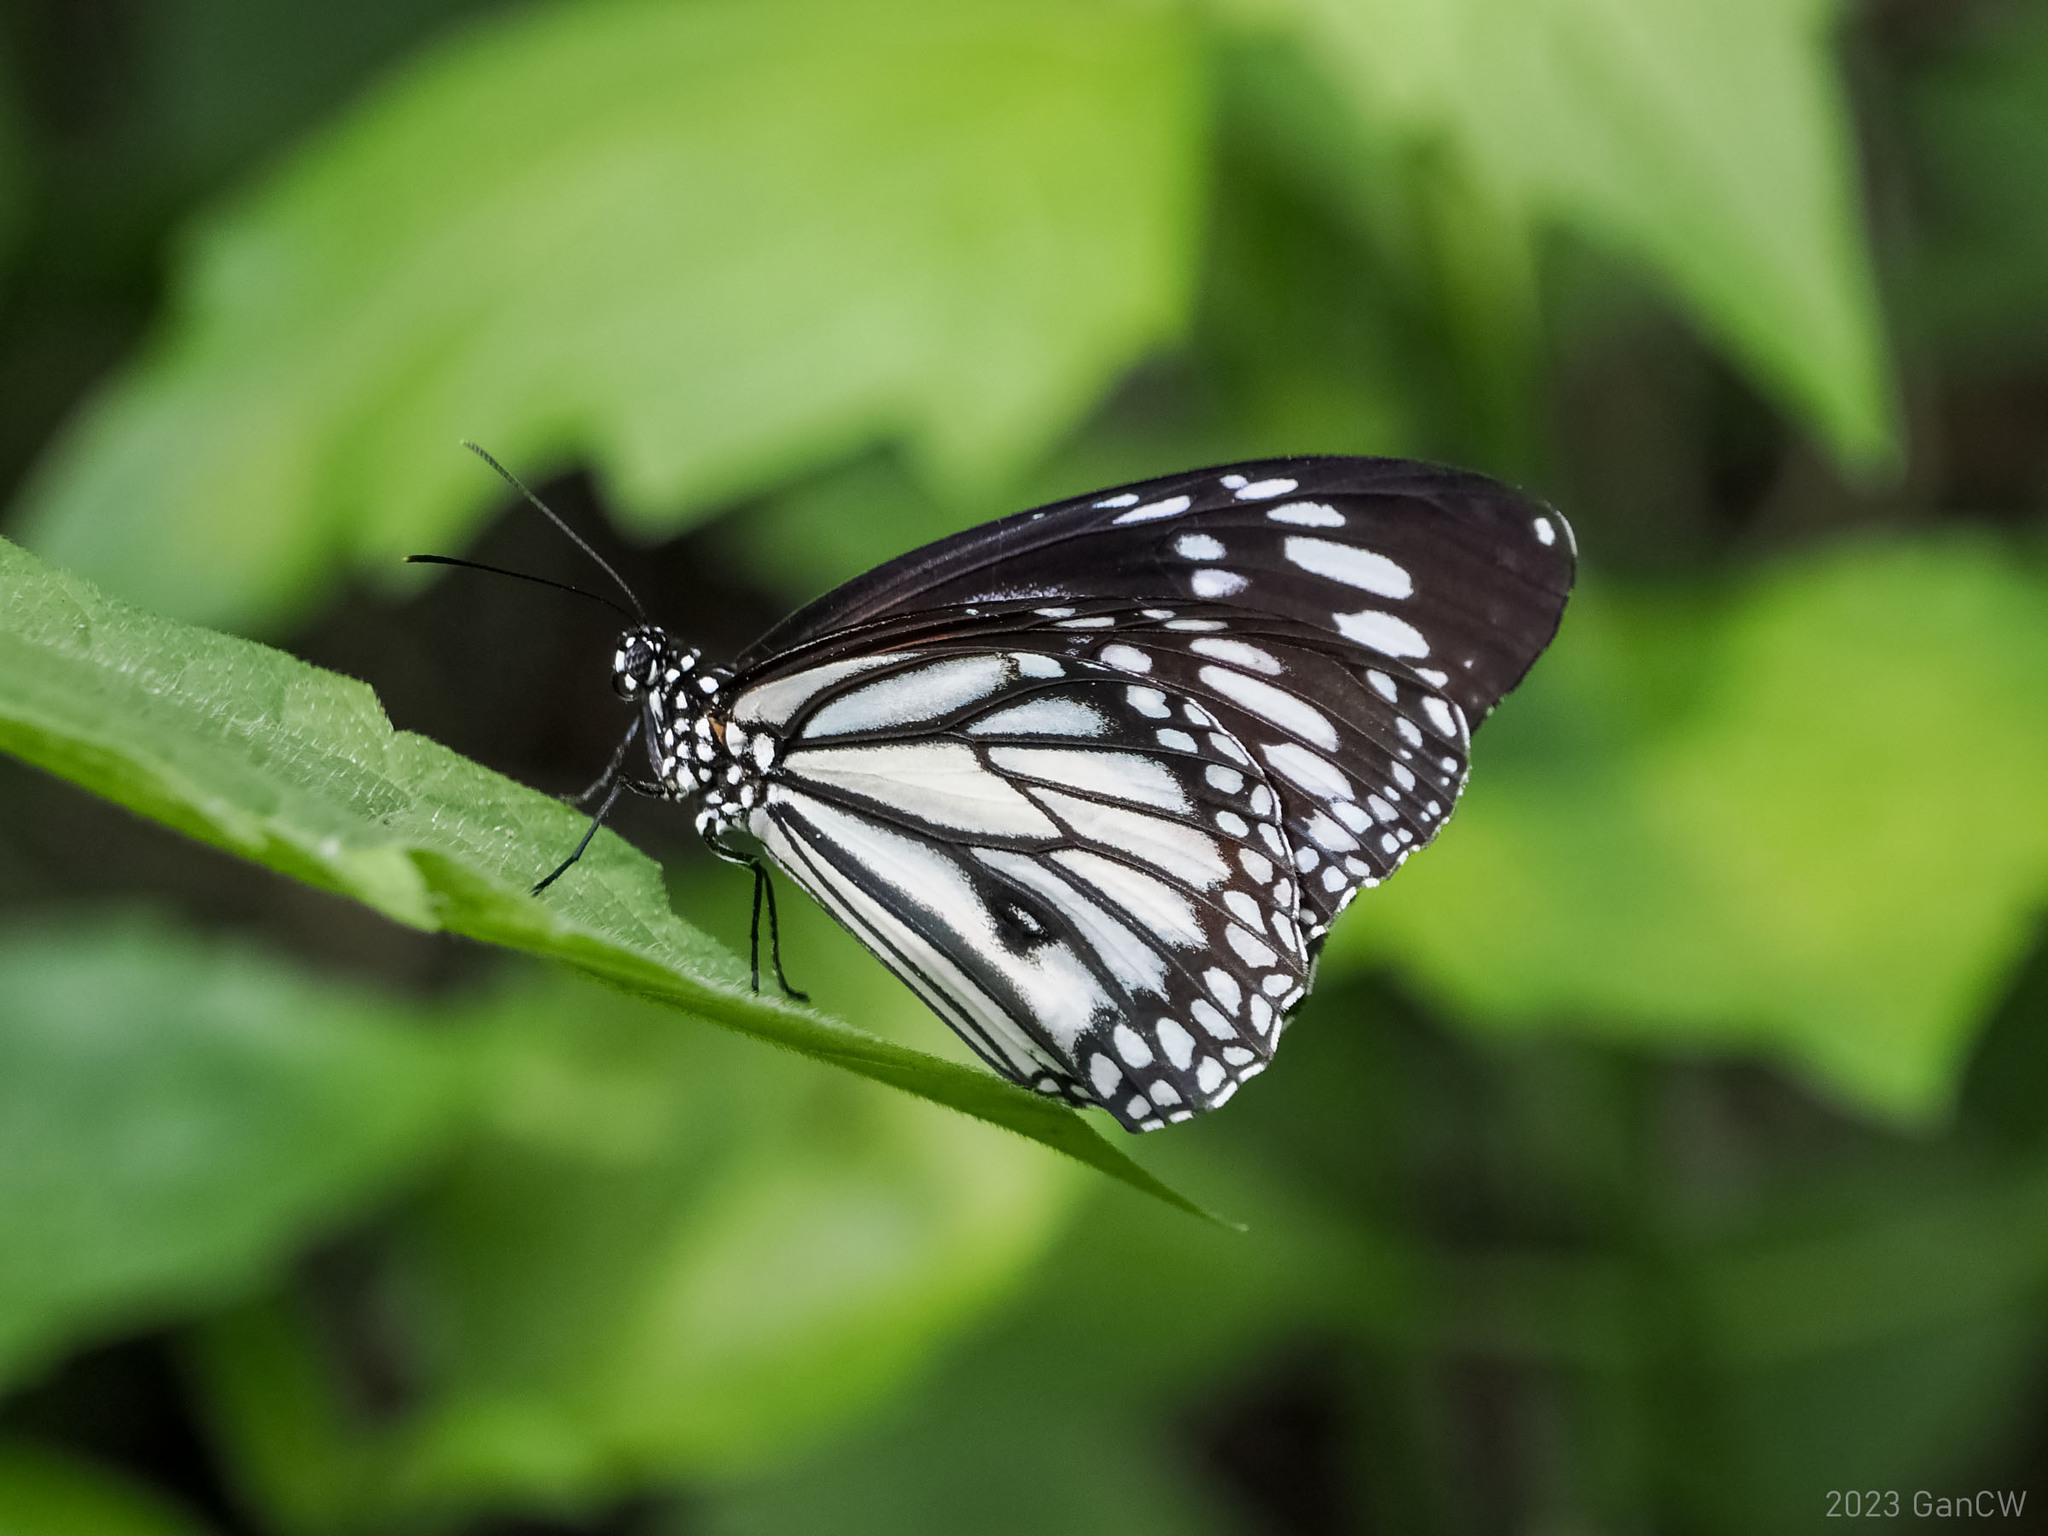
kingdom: Animalia
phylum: Arthropoda
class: Insecta
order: Lepidoptera
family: Nymphalidae
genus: Danaus
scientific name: Danaus melanippus
